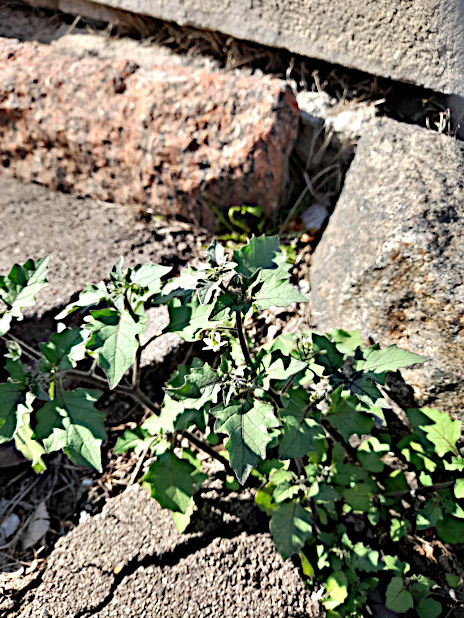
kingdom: Plantae
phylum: Tracheophyta
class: Magnoliopsida
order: Solanales
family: Solanaceae
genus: Solanum
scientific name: Solanum nigrum
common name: Black nightshade
